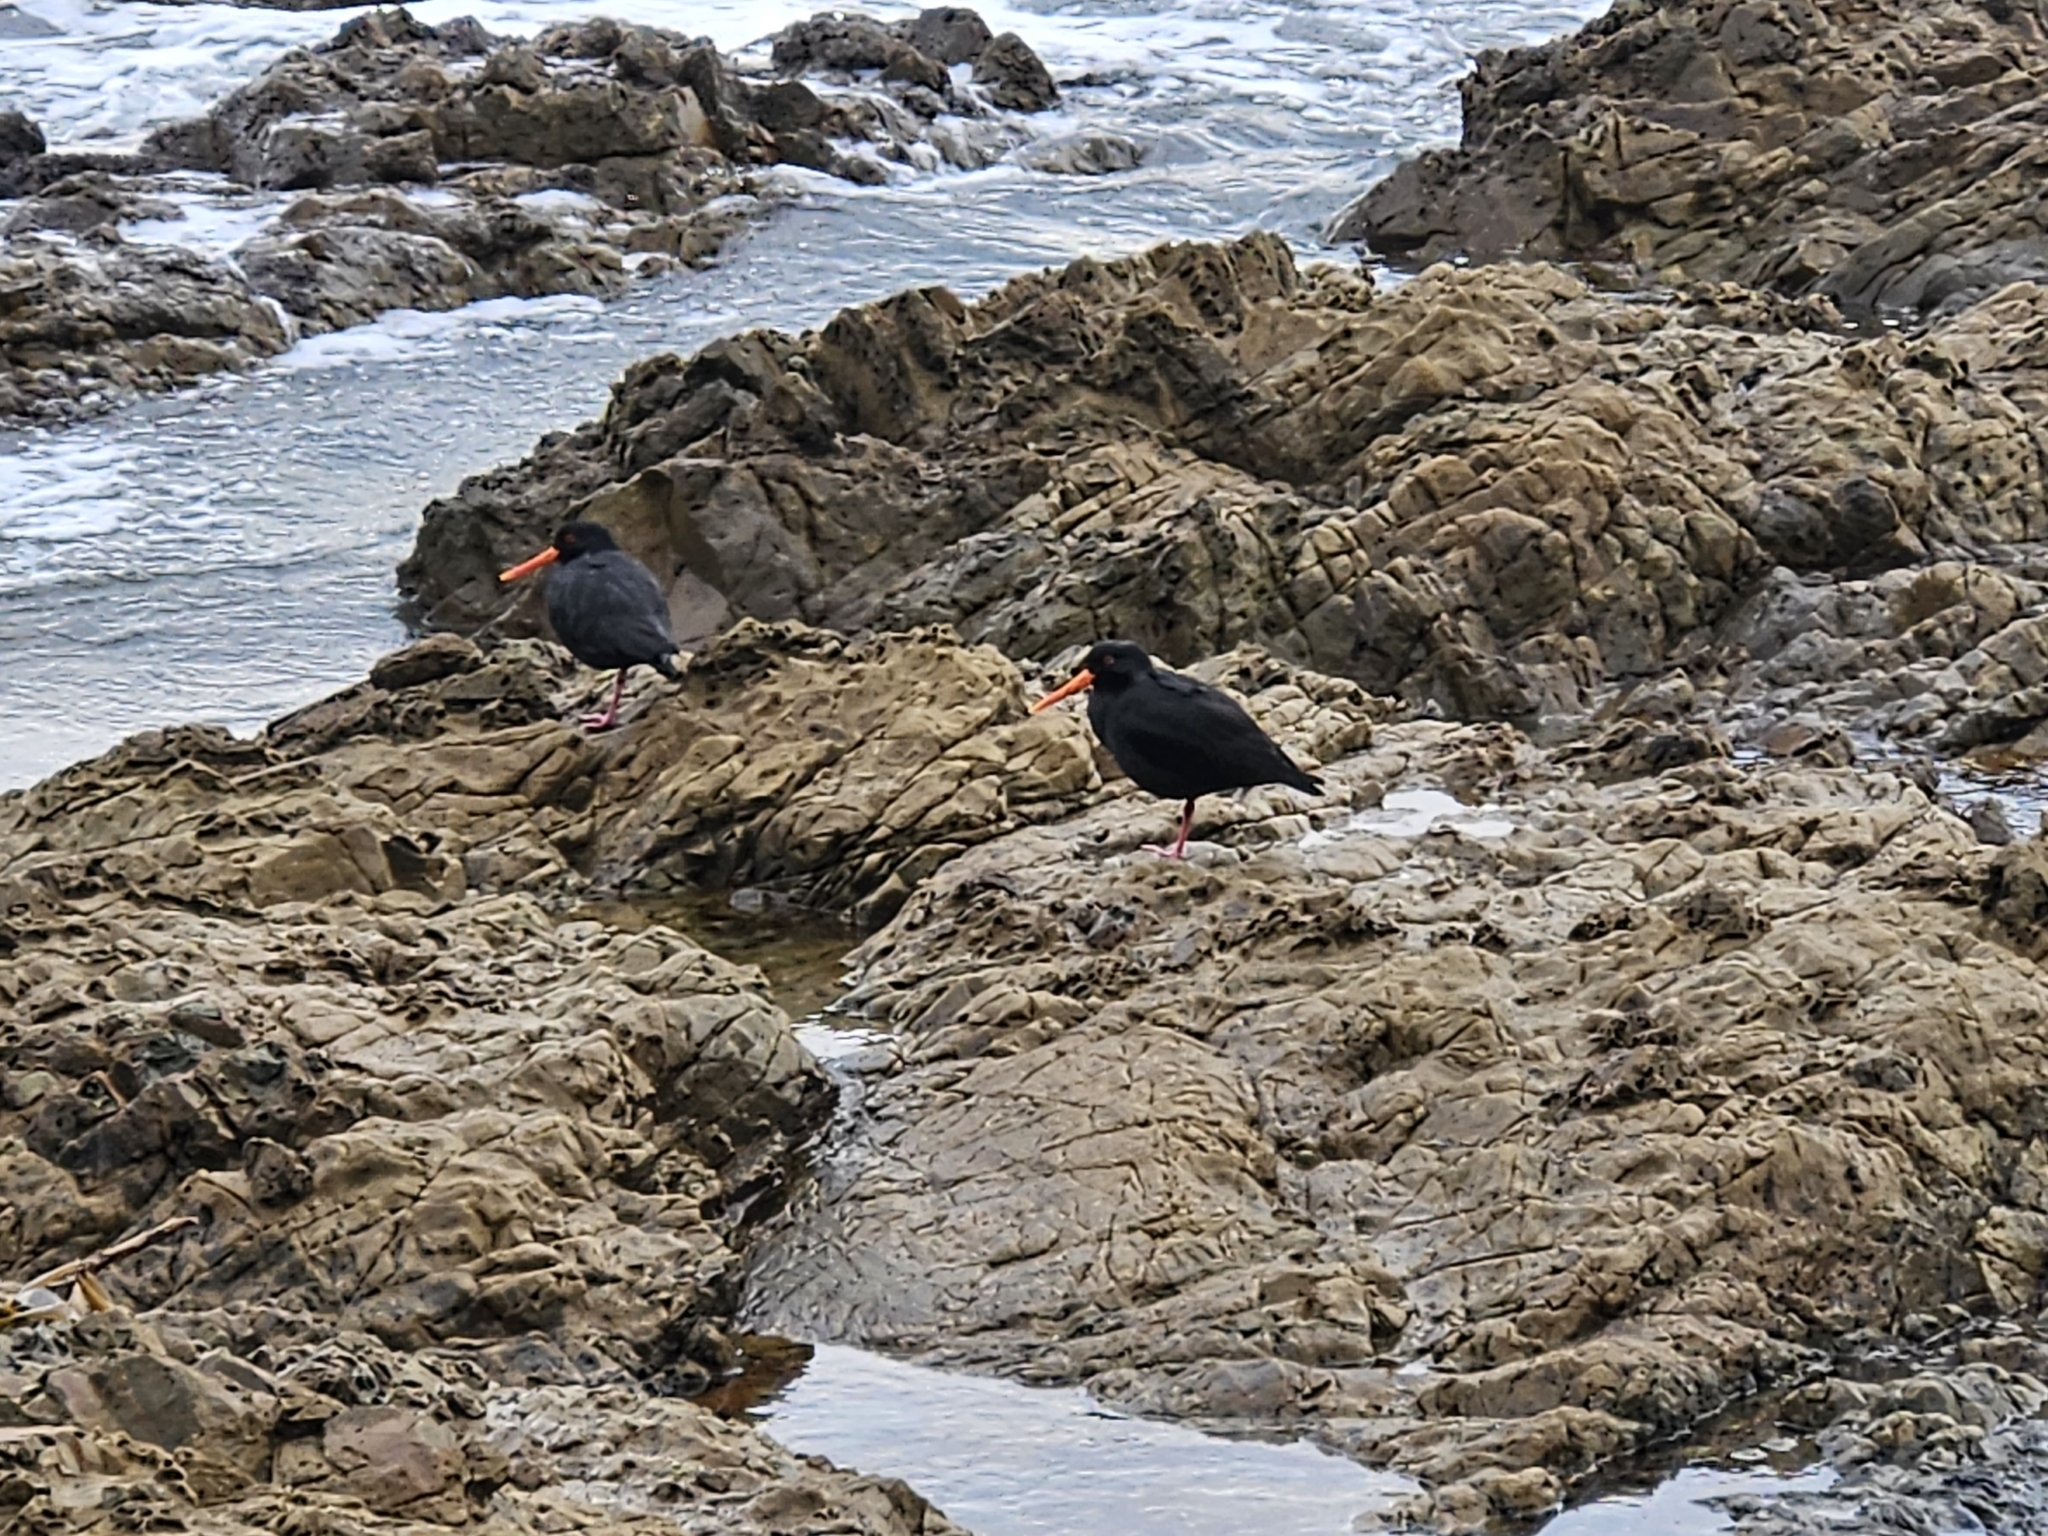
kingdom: Animalia
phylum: Chordata
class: Aves
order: Charadriiformes
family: Haematopodidae
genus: Haematopus
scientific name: Haematopus unicolor
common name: Variable oystercatcher
